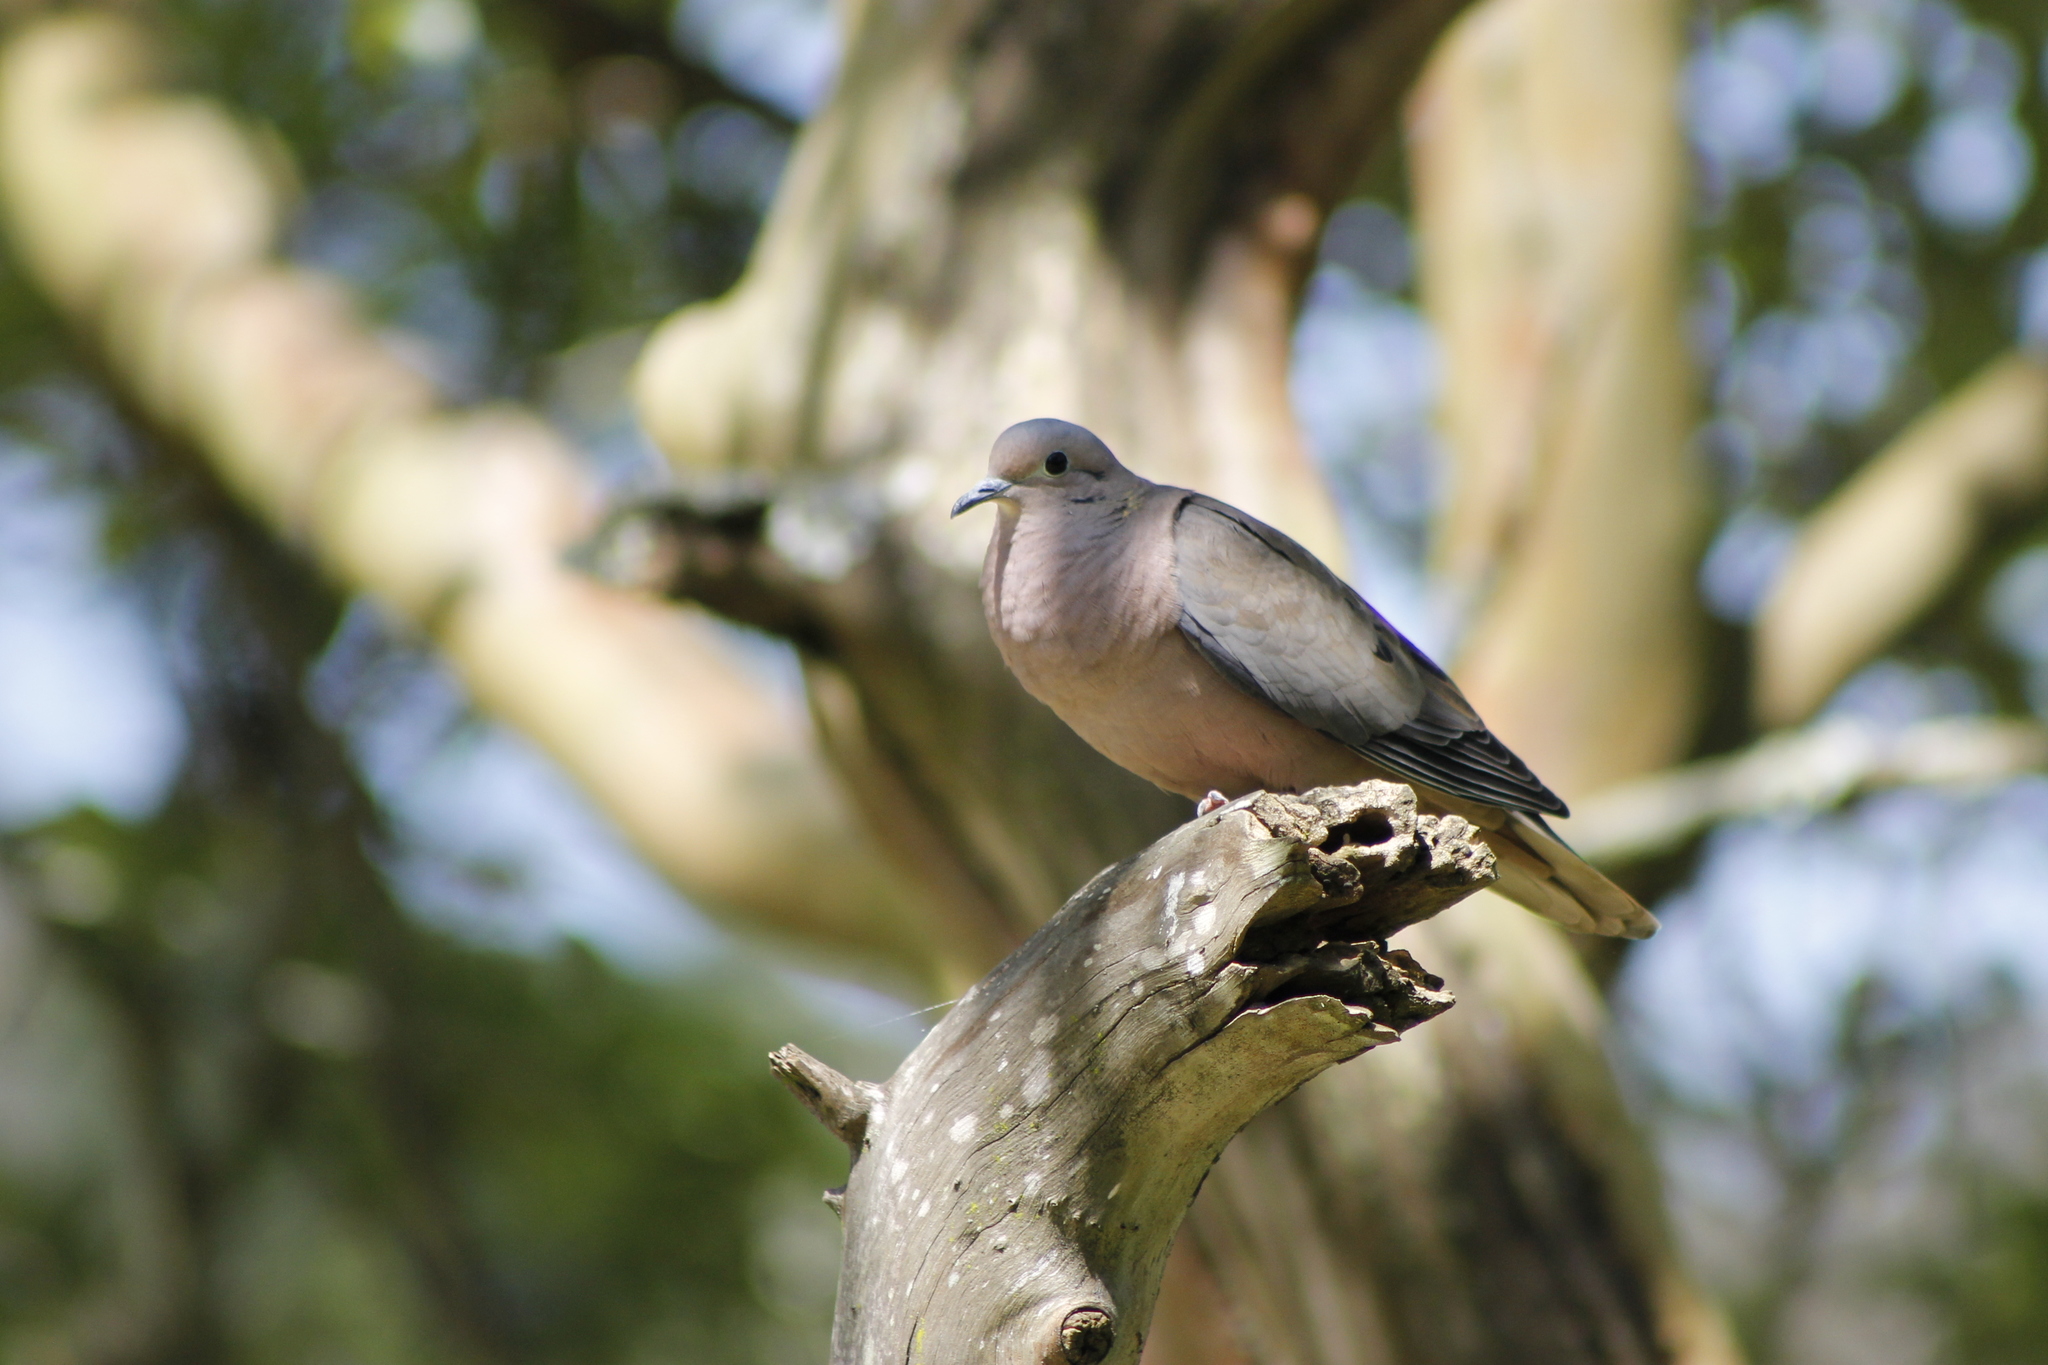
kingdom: Animalia
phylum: Chordata
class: Aves
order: Columbiformes
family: Columbidae
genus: Zenaida
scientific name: Zenaida auriculata
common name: Eared dove
